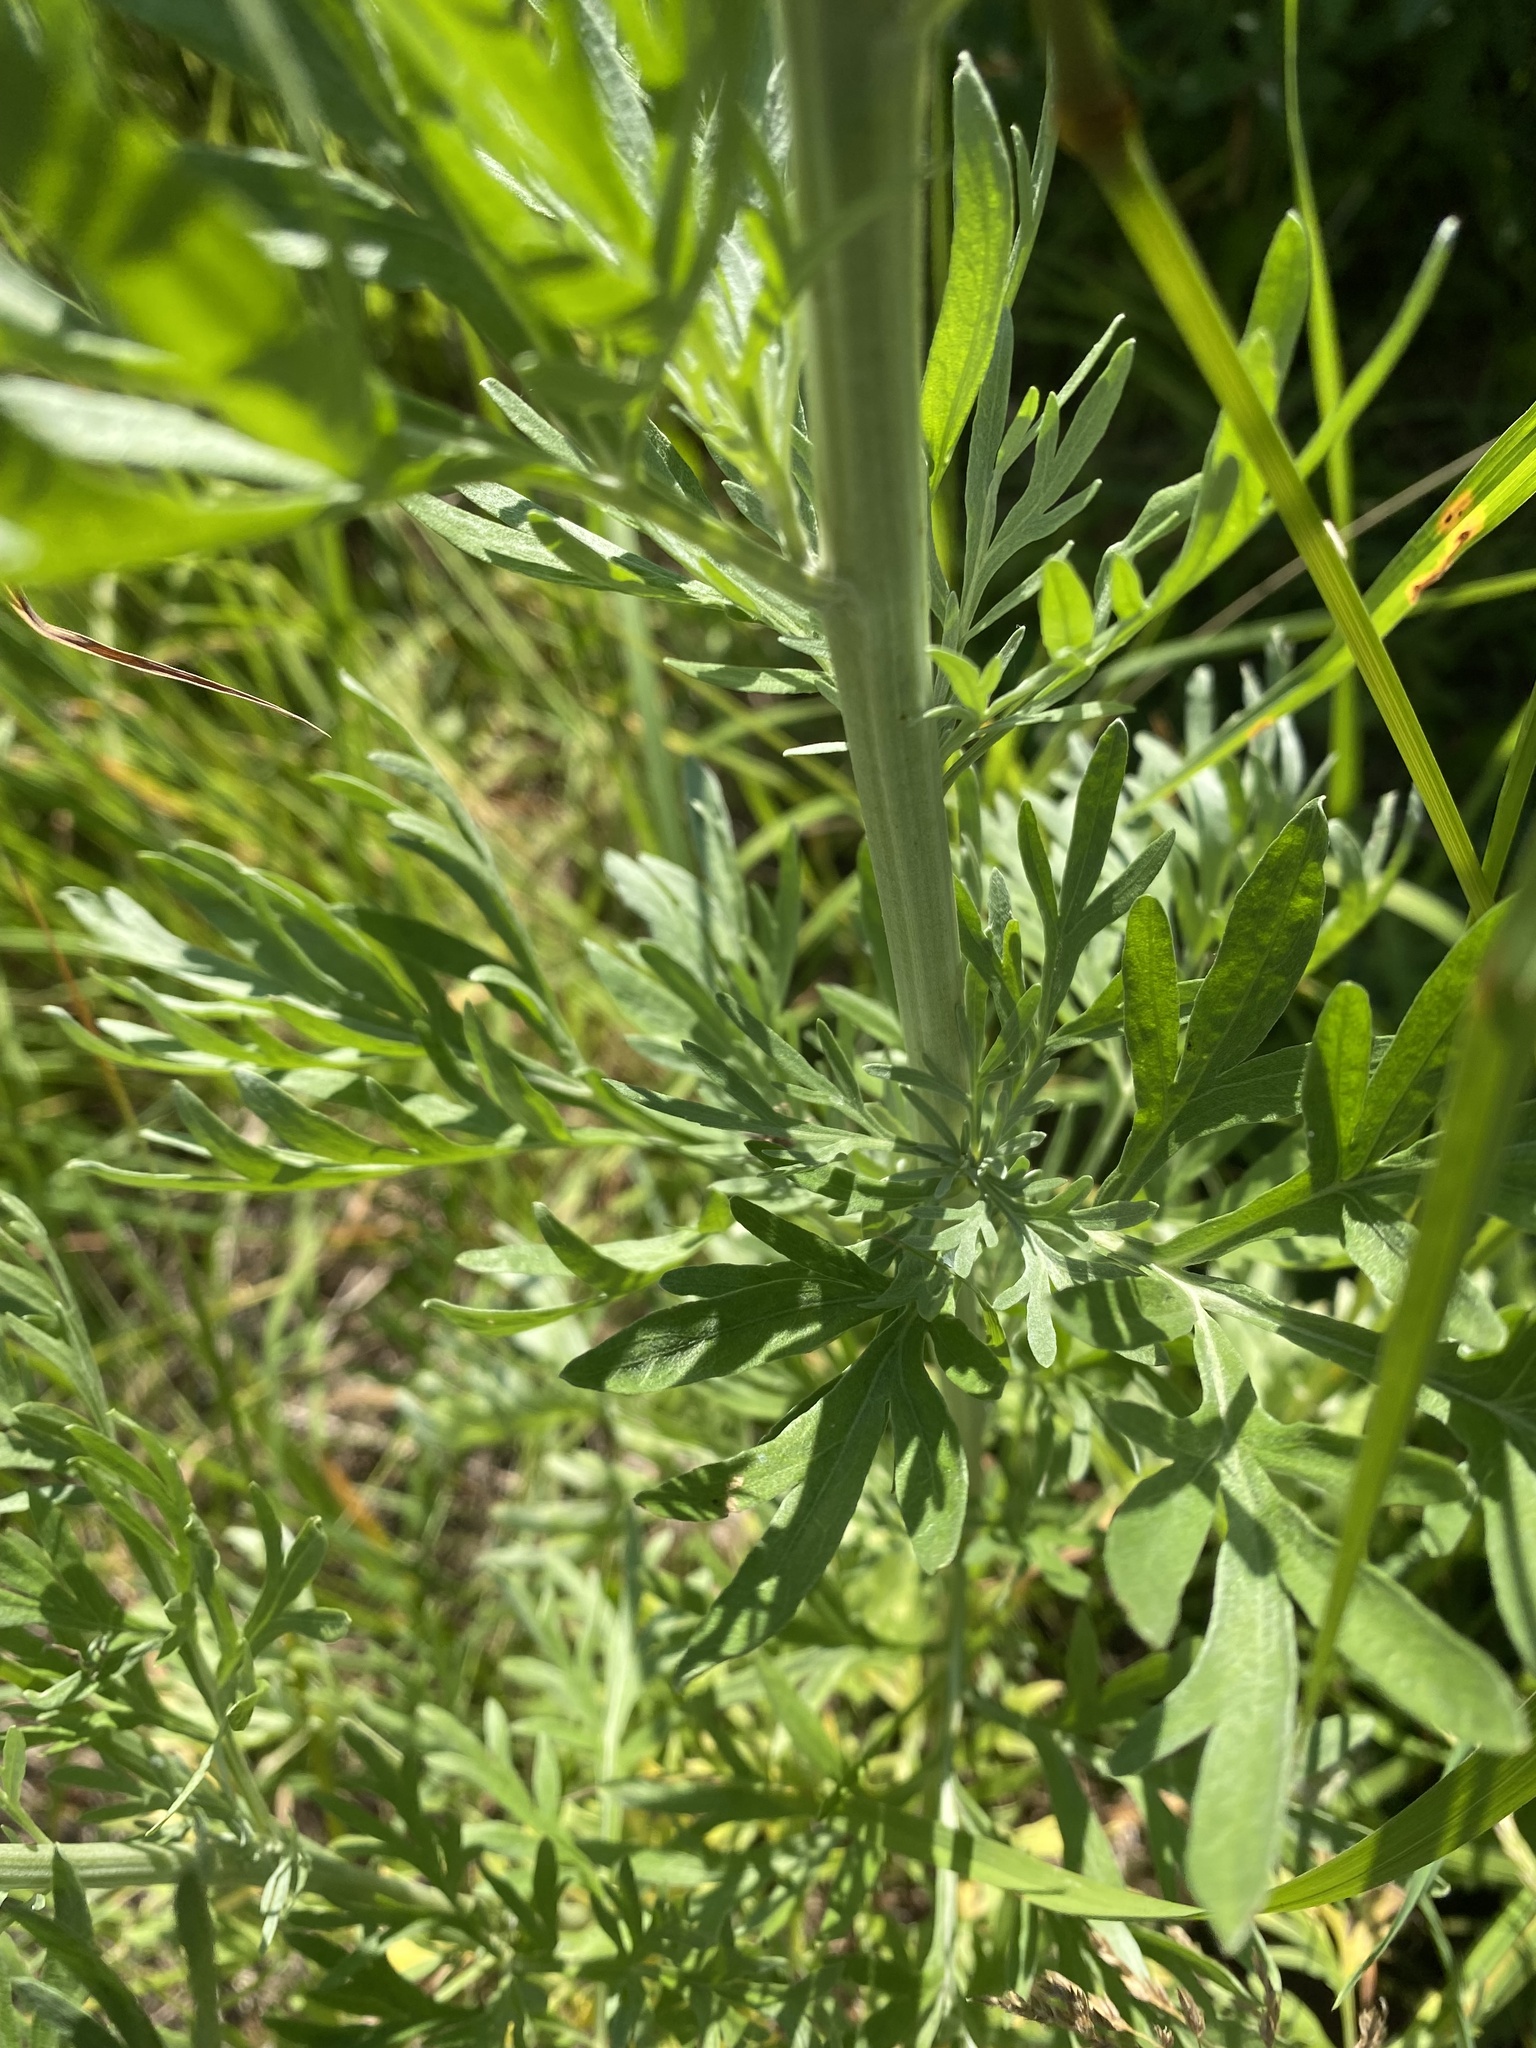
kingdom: Plantae
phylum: Tracheophyta
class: Magnoliopsida
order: Asterales
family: Asteraceae
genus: Artemisia
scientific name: Artemisia absinthium
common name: Wormwood
